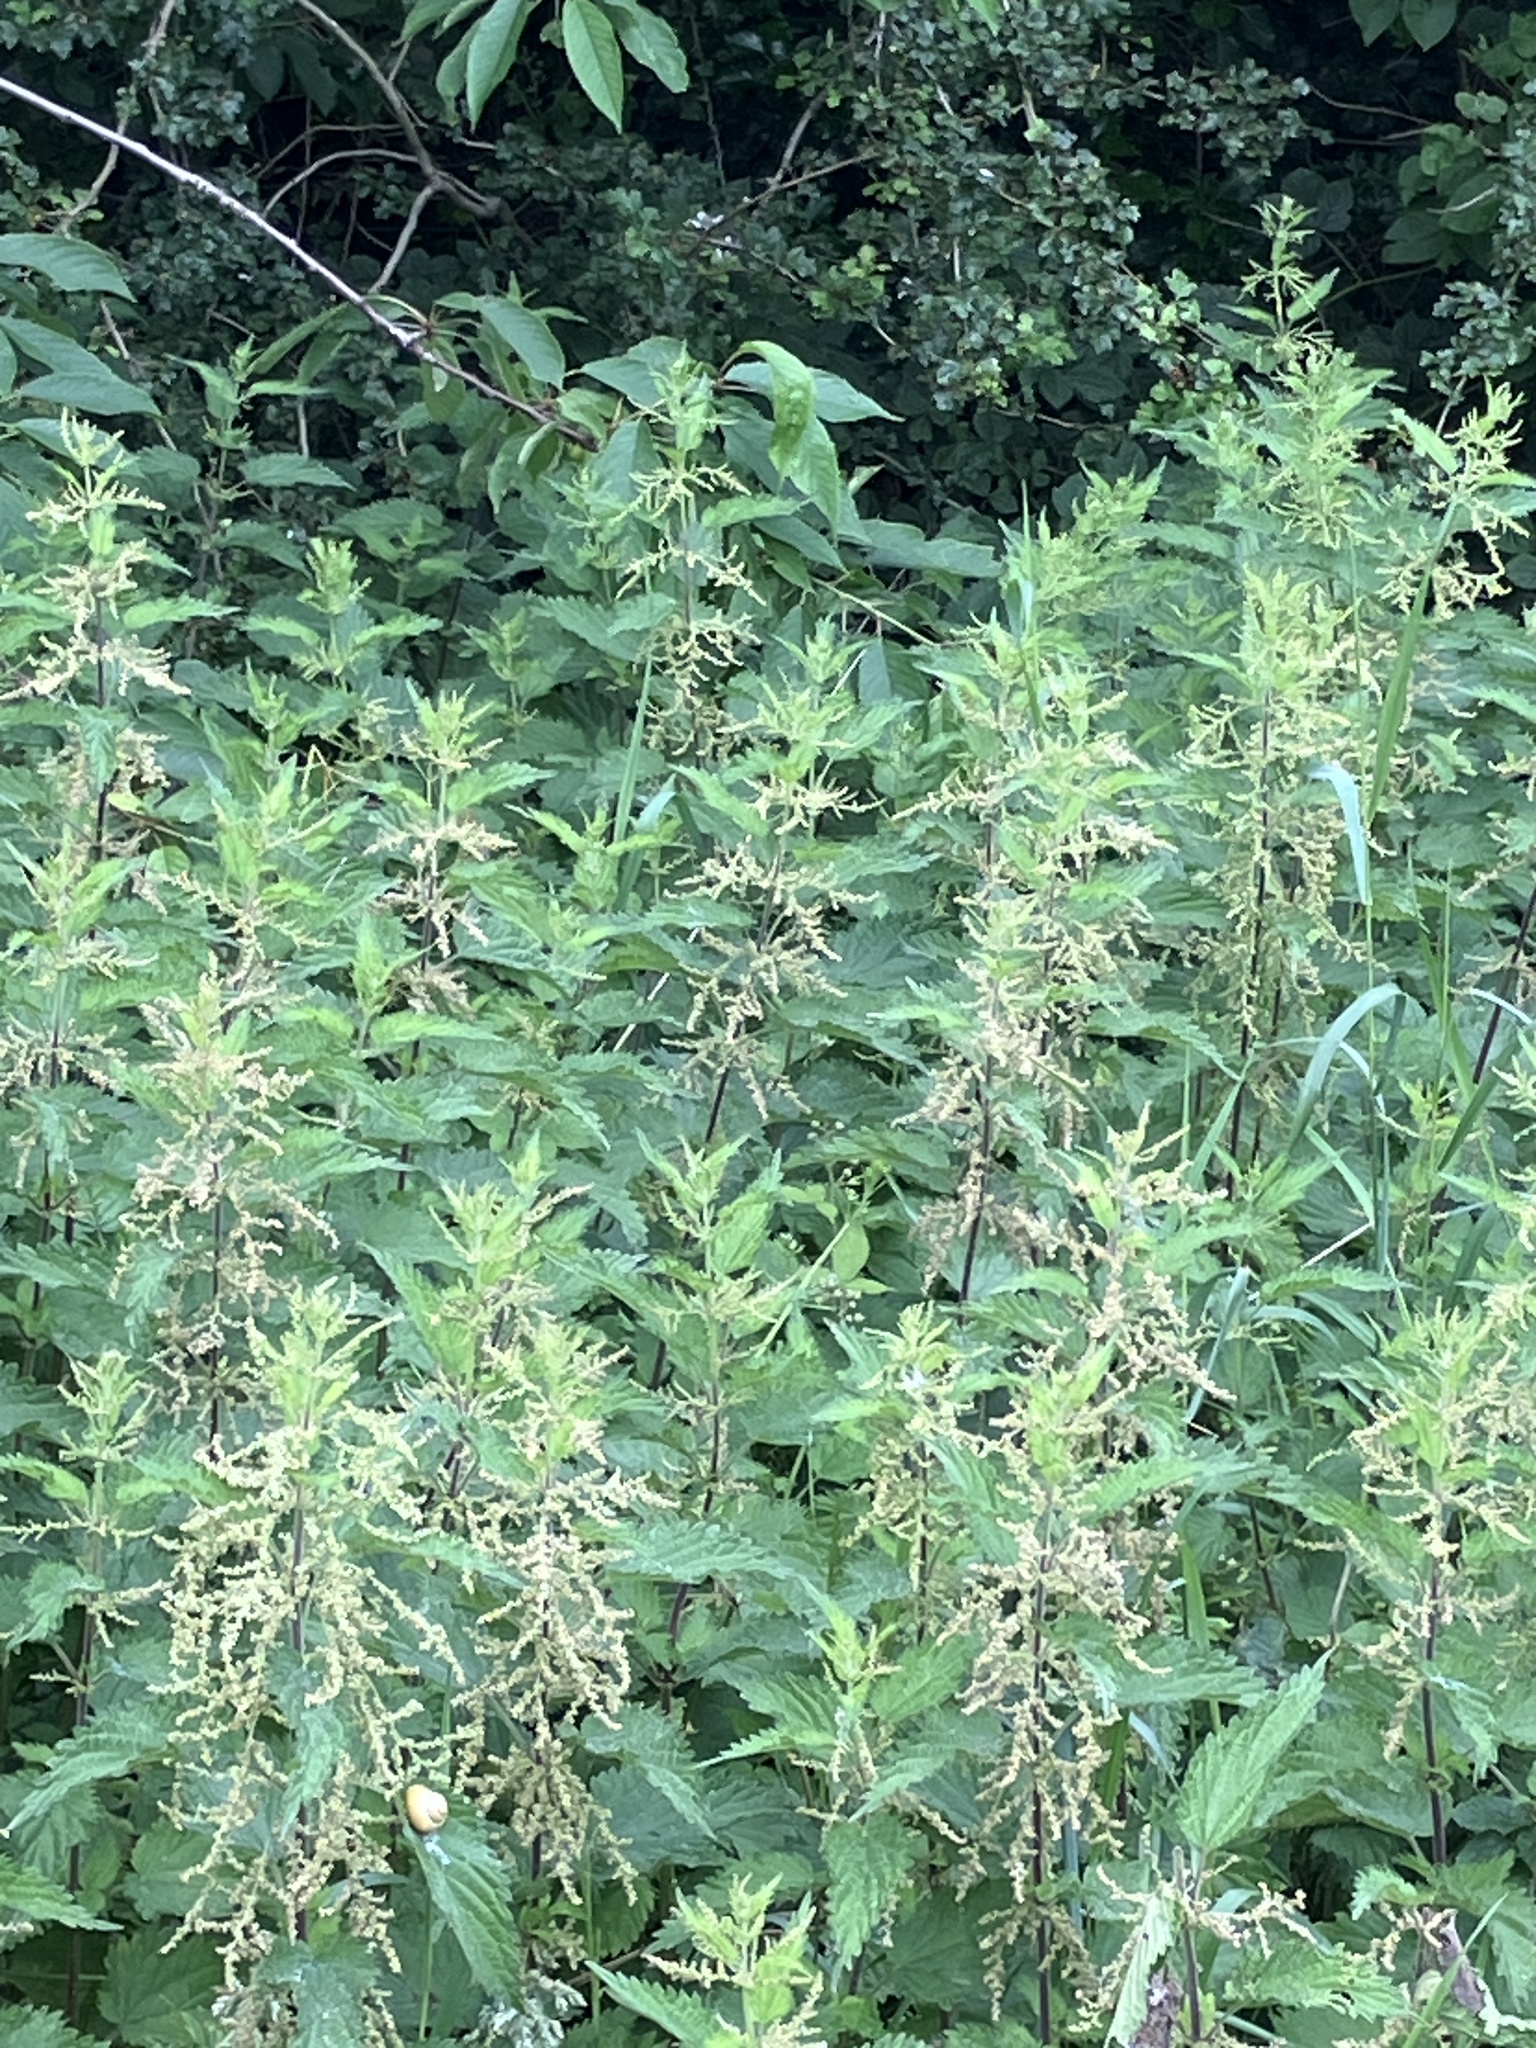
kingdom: Plantae
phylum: Tracheophyta
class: Magnoliopsida
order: Rosales
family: Urticaceae
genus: Urtica
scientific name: Urtica dioica
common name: Common nettle
